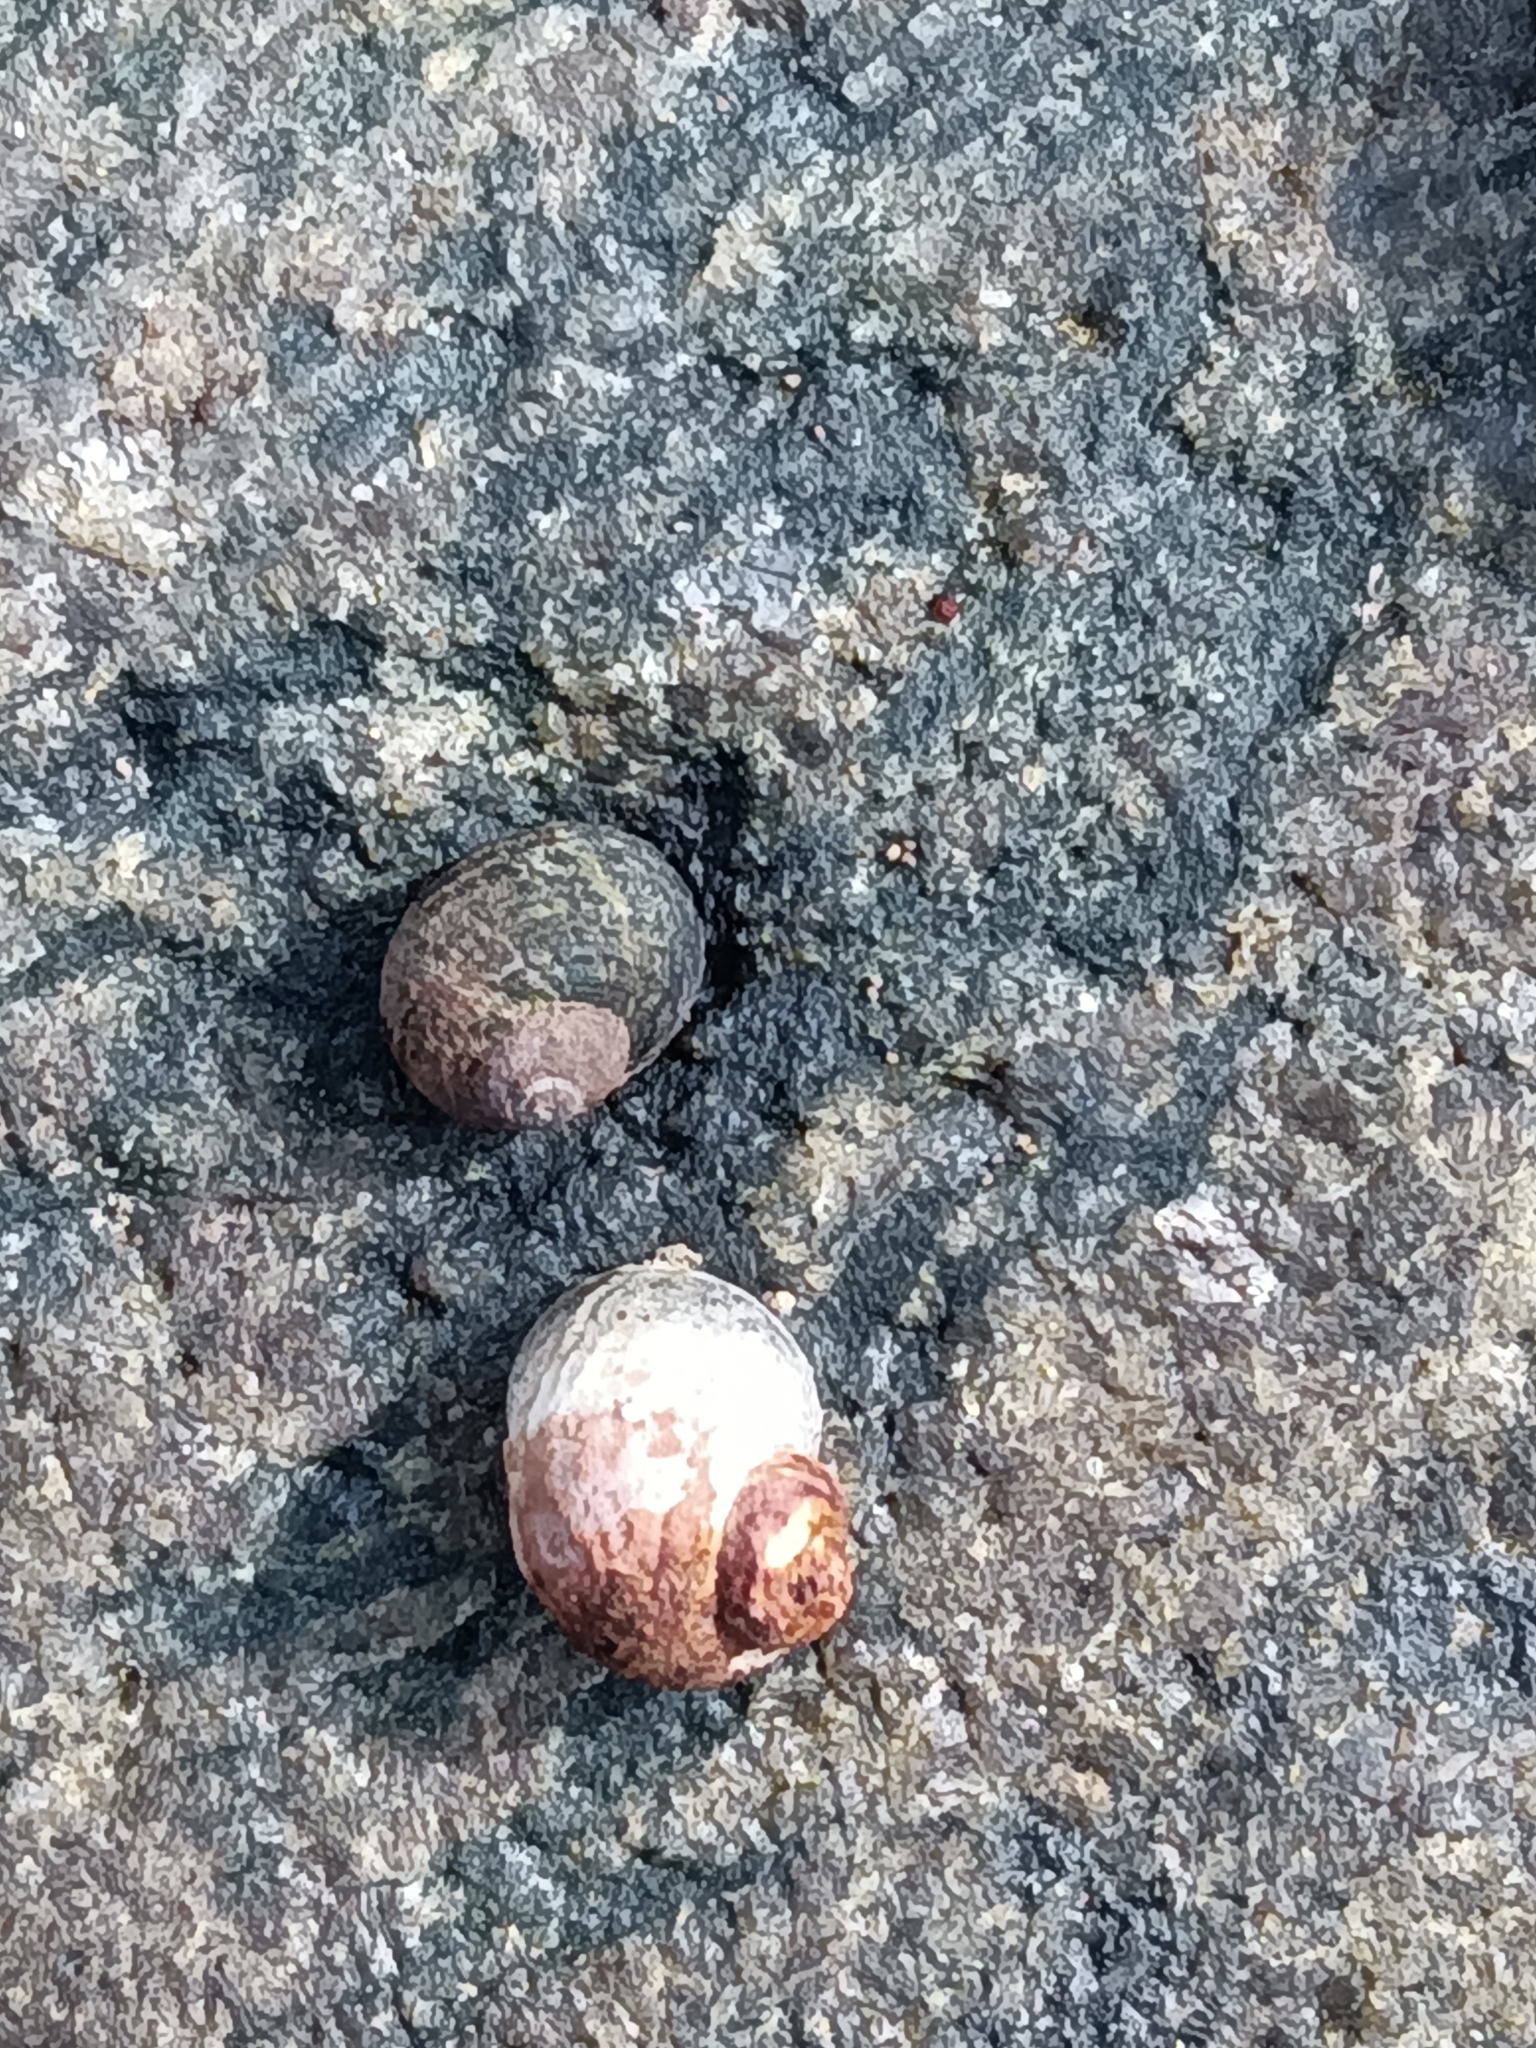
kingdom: Animalia
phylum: Mollusca
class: Gastropoda
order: Littorinimorpha
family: Littorinidae
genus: Littorina
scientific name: Littorina littorea
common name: Common periwinkle
